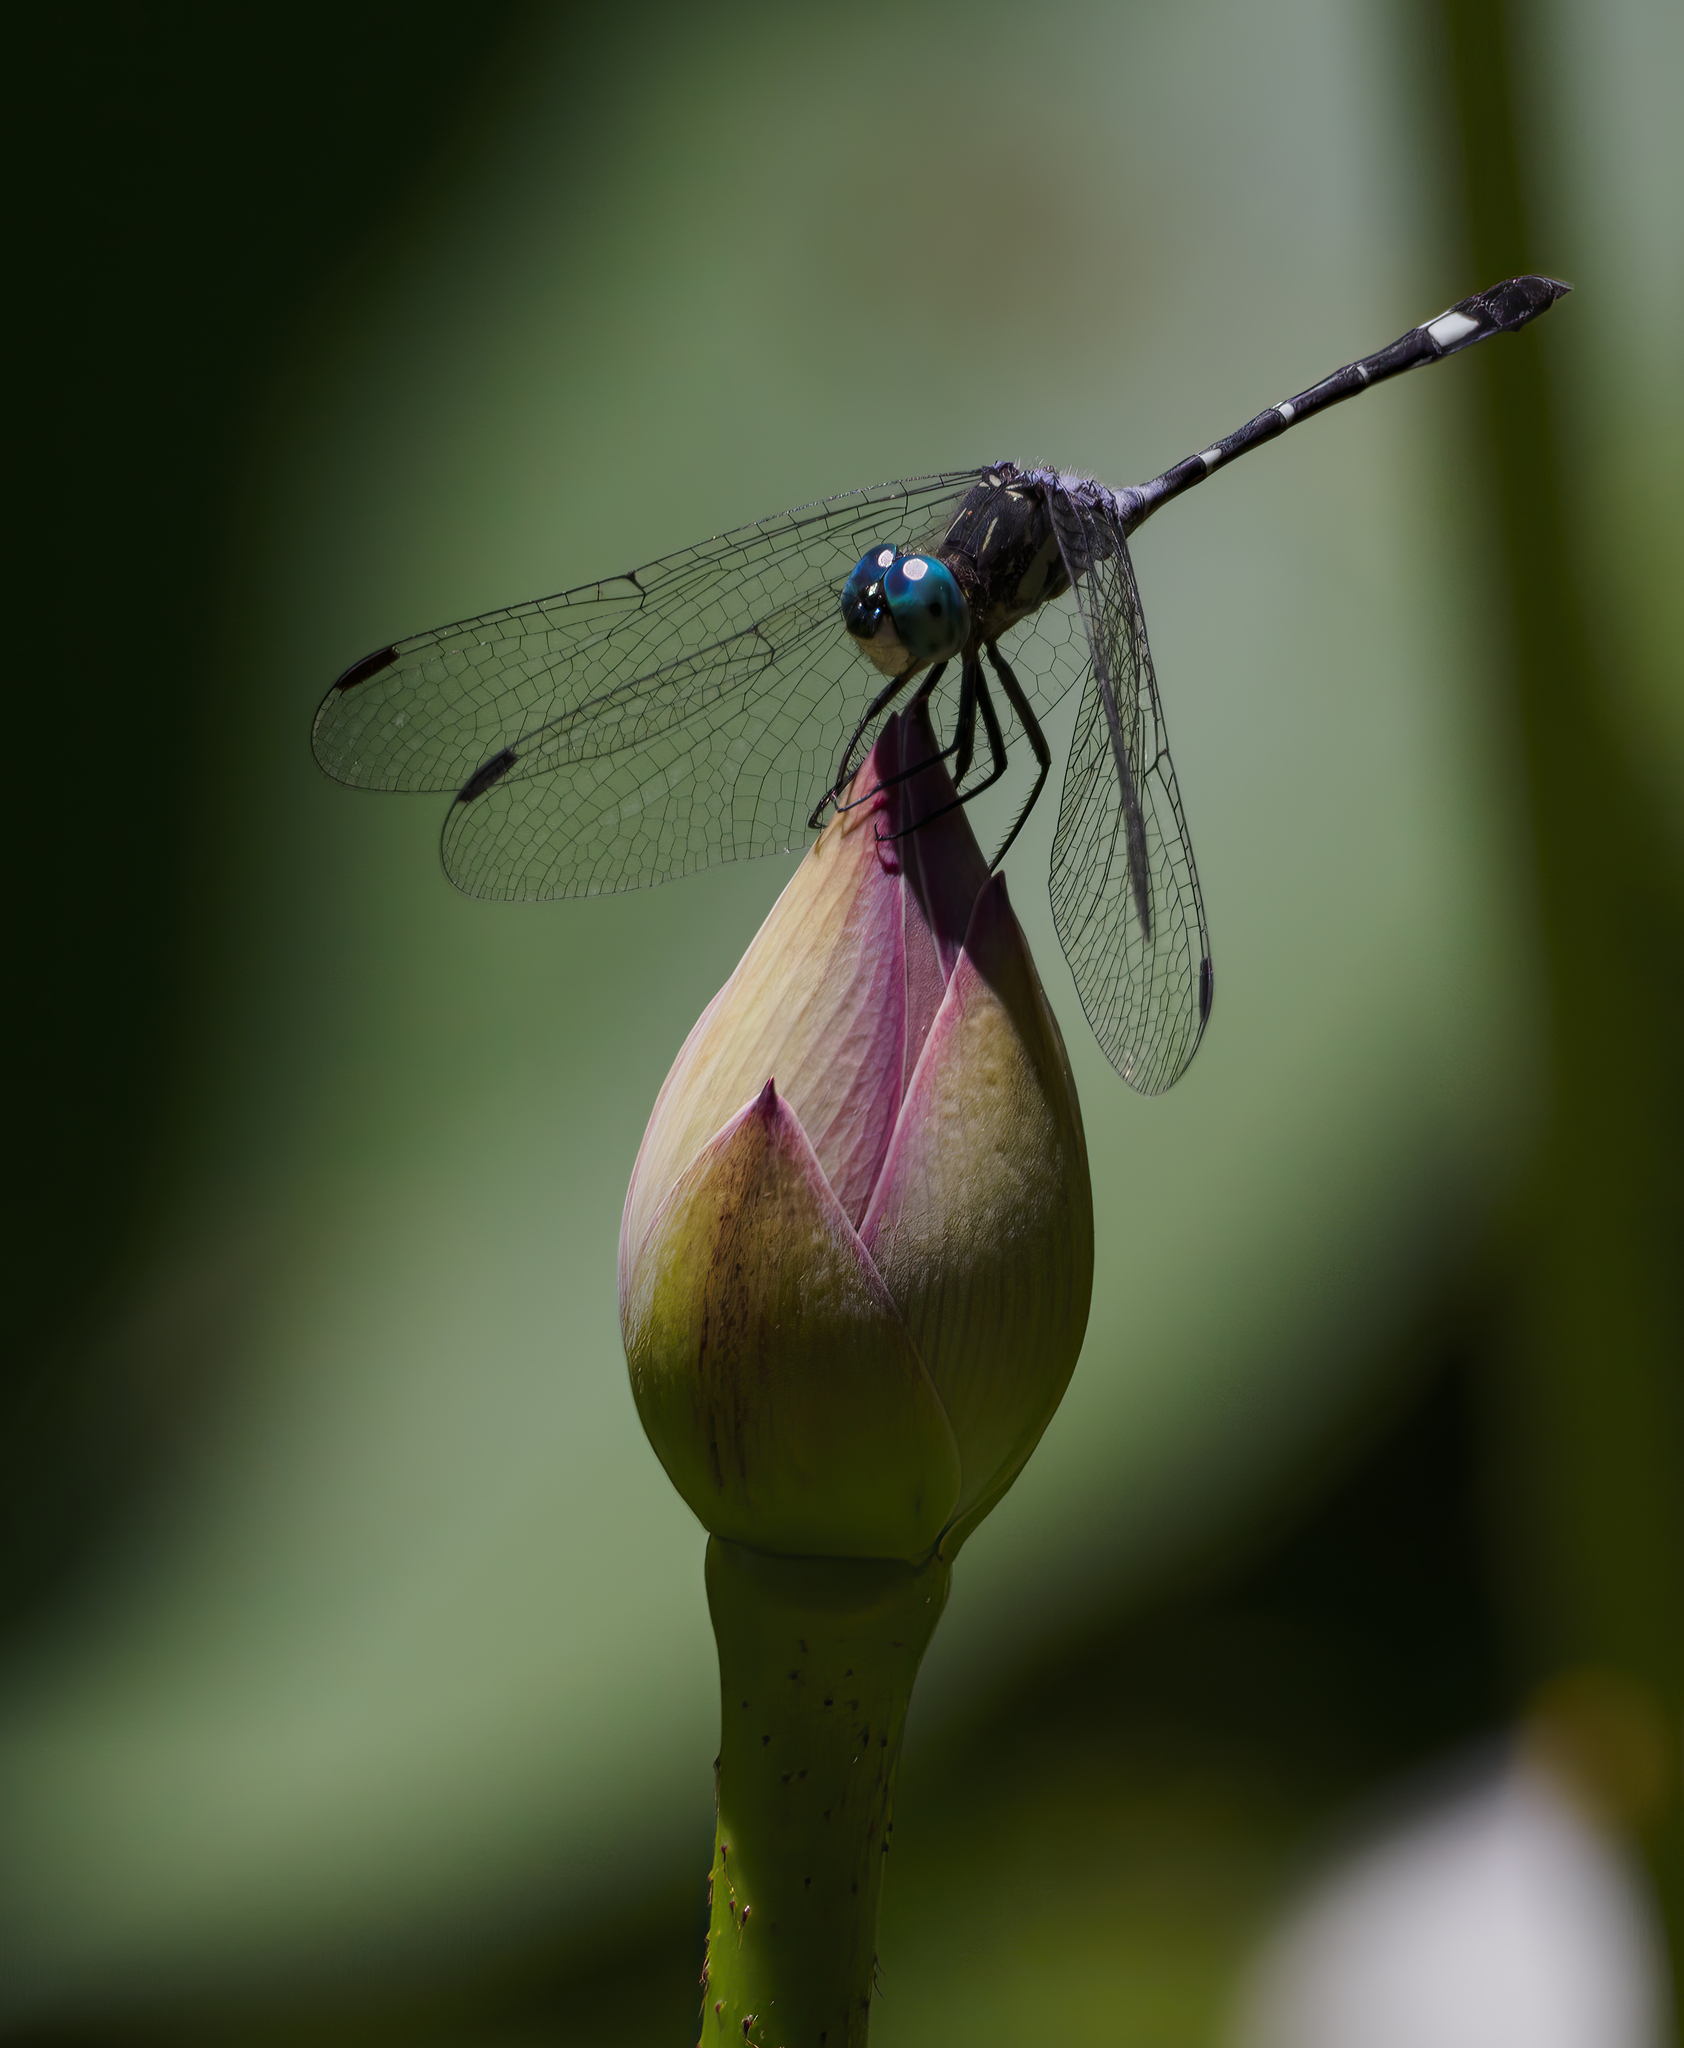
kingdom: Animalia
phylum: Arthropoda
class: Insecta
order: Odonata
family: Libellulidae
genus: Micrathyria
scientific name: Micrathyria hypodidyma
